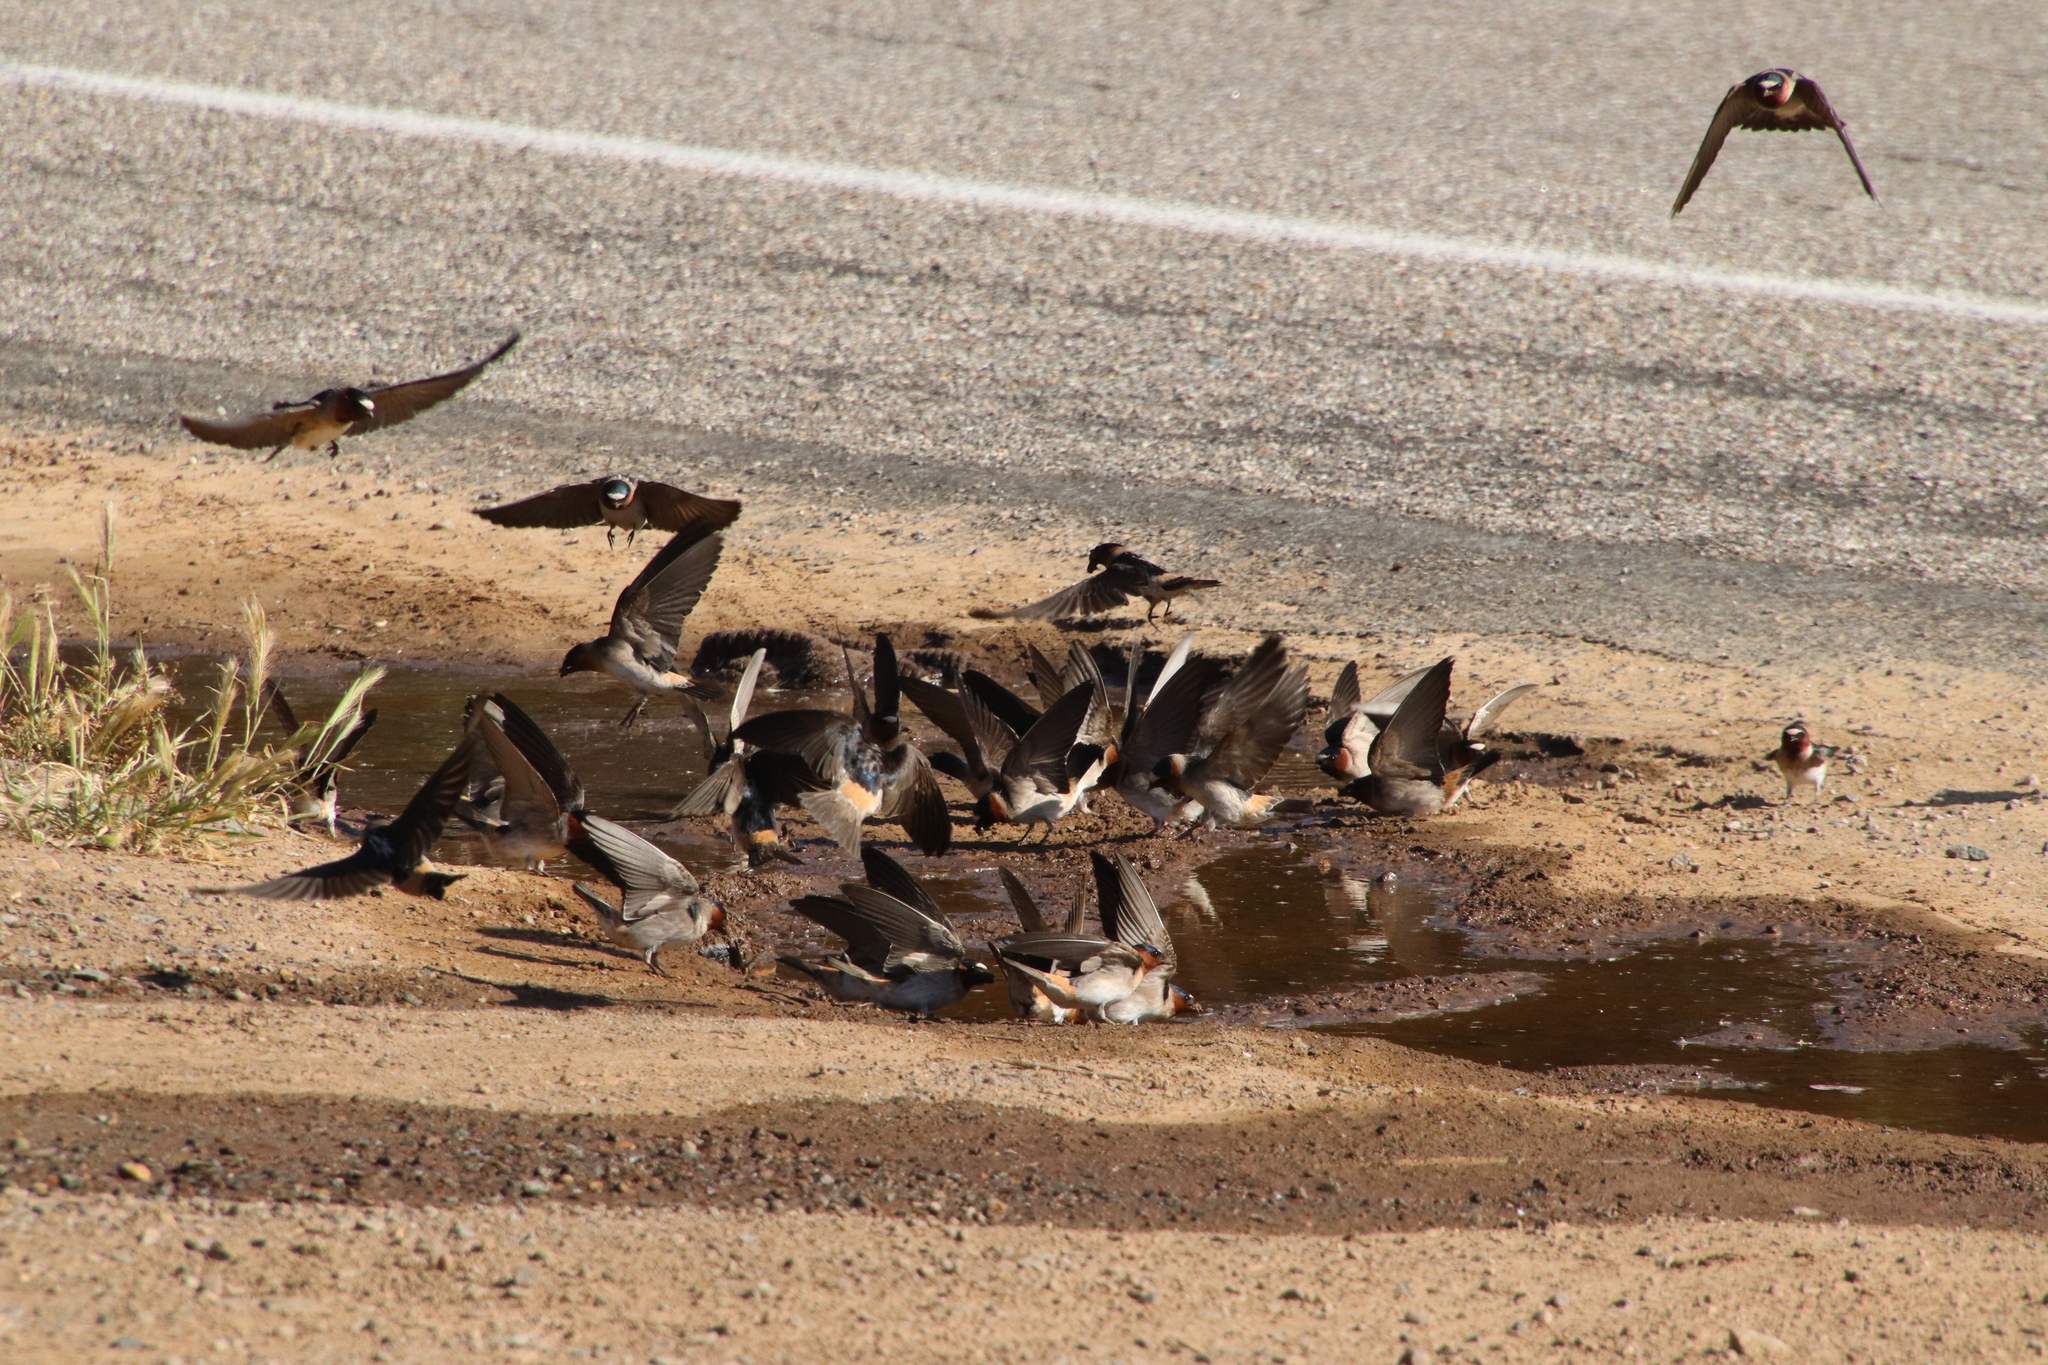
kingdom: Animalia
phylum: Chordata
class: Aves
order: Passeriformes
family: Hirundinidae
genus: Petrochelidon
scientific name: Petrochelidon pyrrhonota
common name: American cliff swallow
